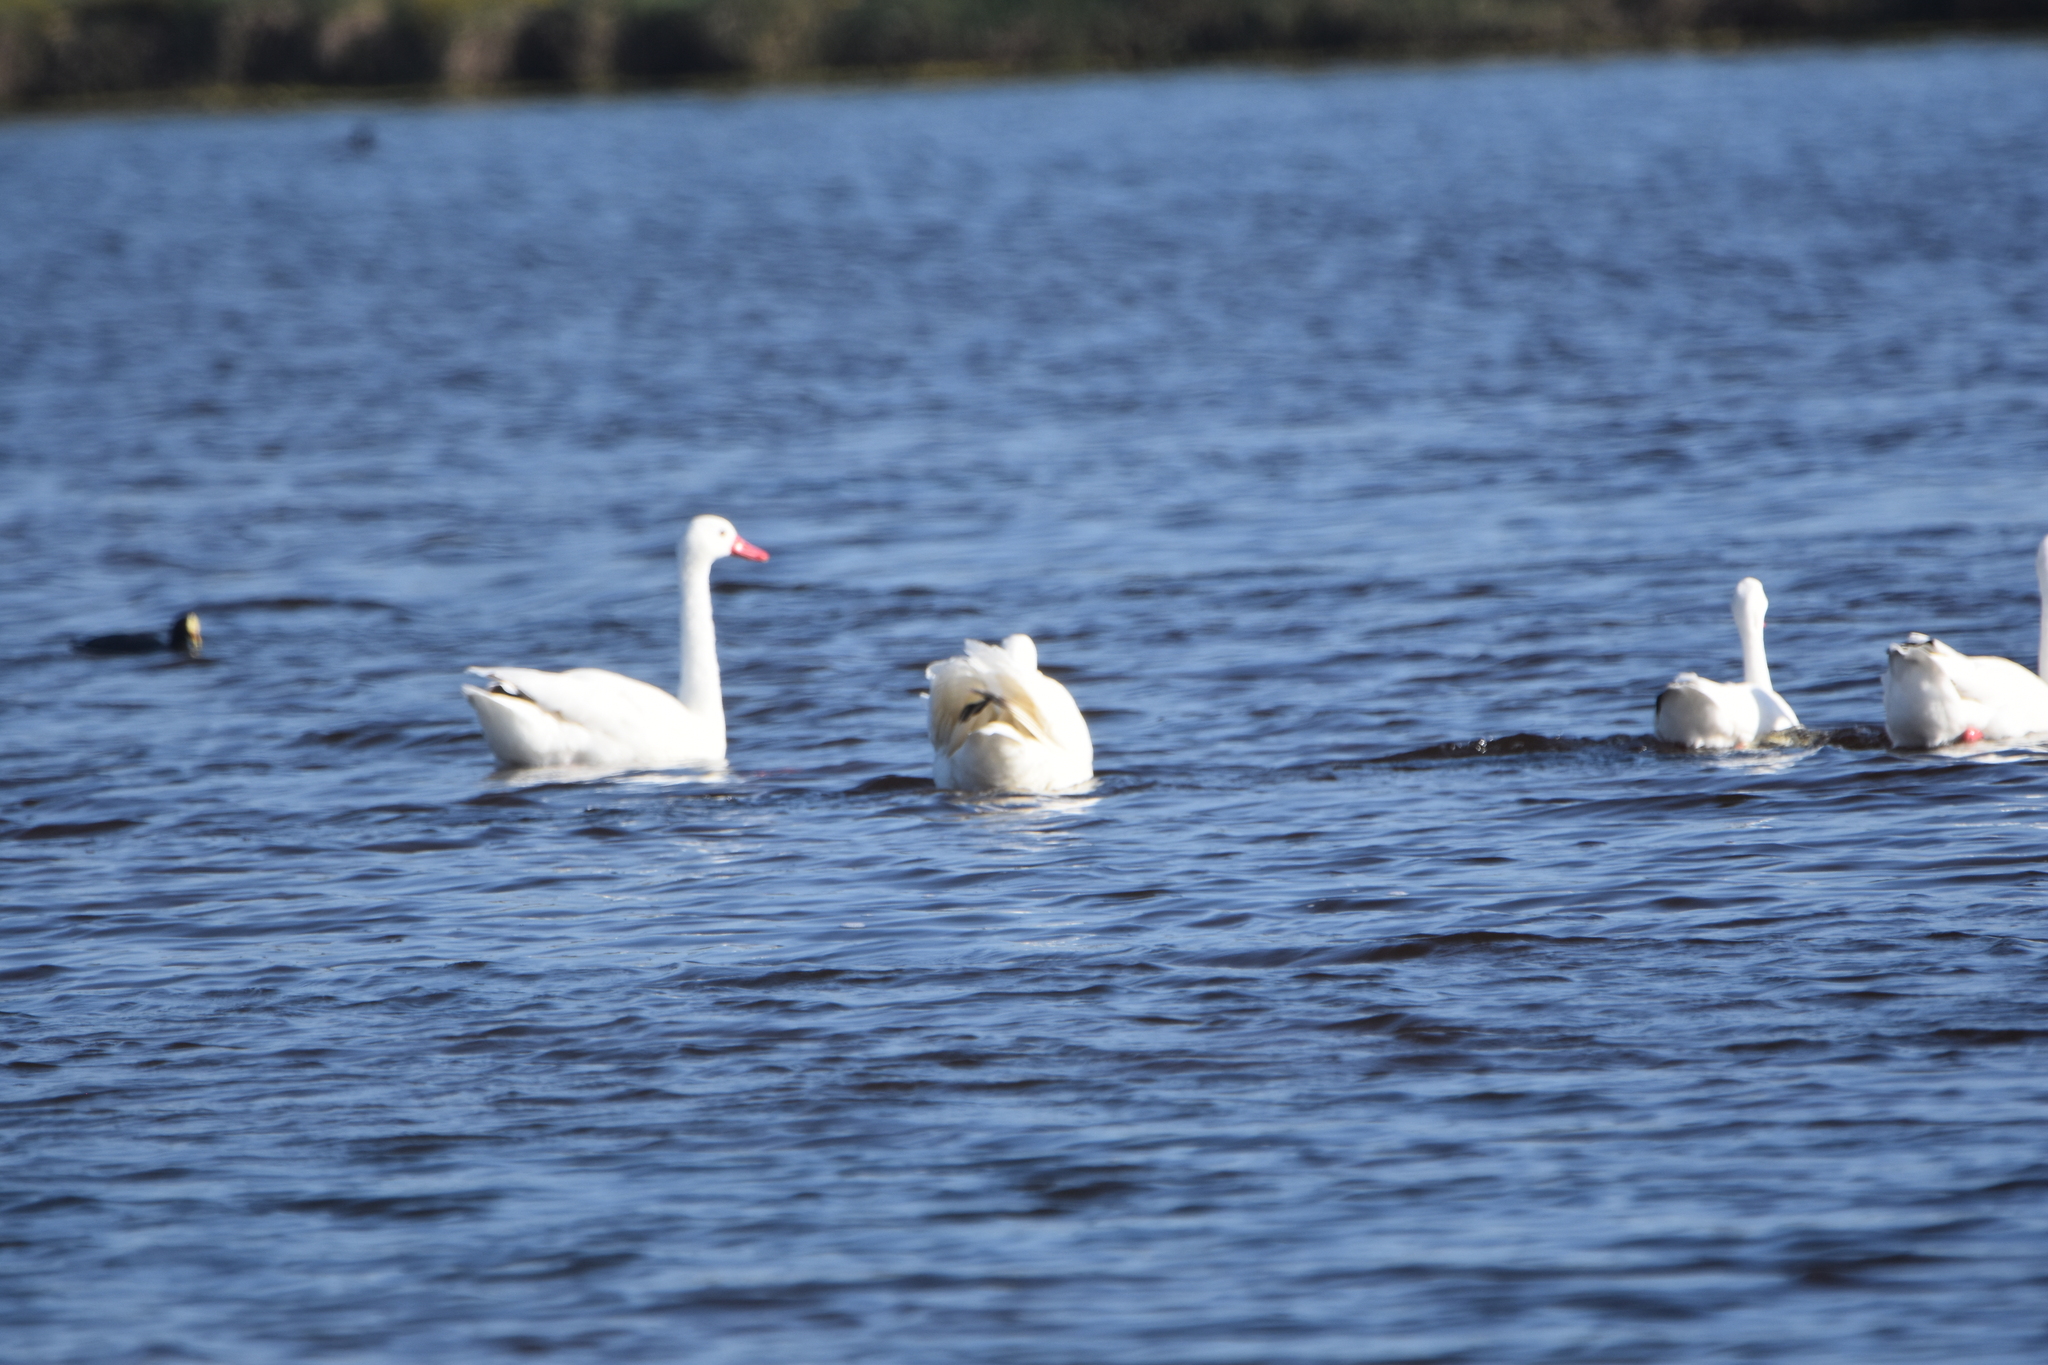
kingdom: Animalia
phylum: Chordata
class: Aves
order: Anseriformes
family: Anatidae
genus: Coscoroba
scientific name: Coscoroba coscoroba
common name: Coscoroba swan
